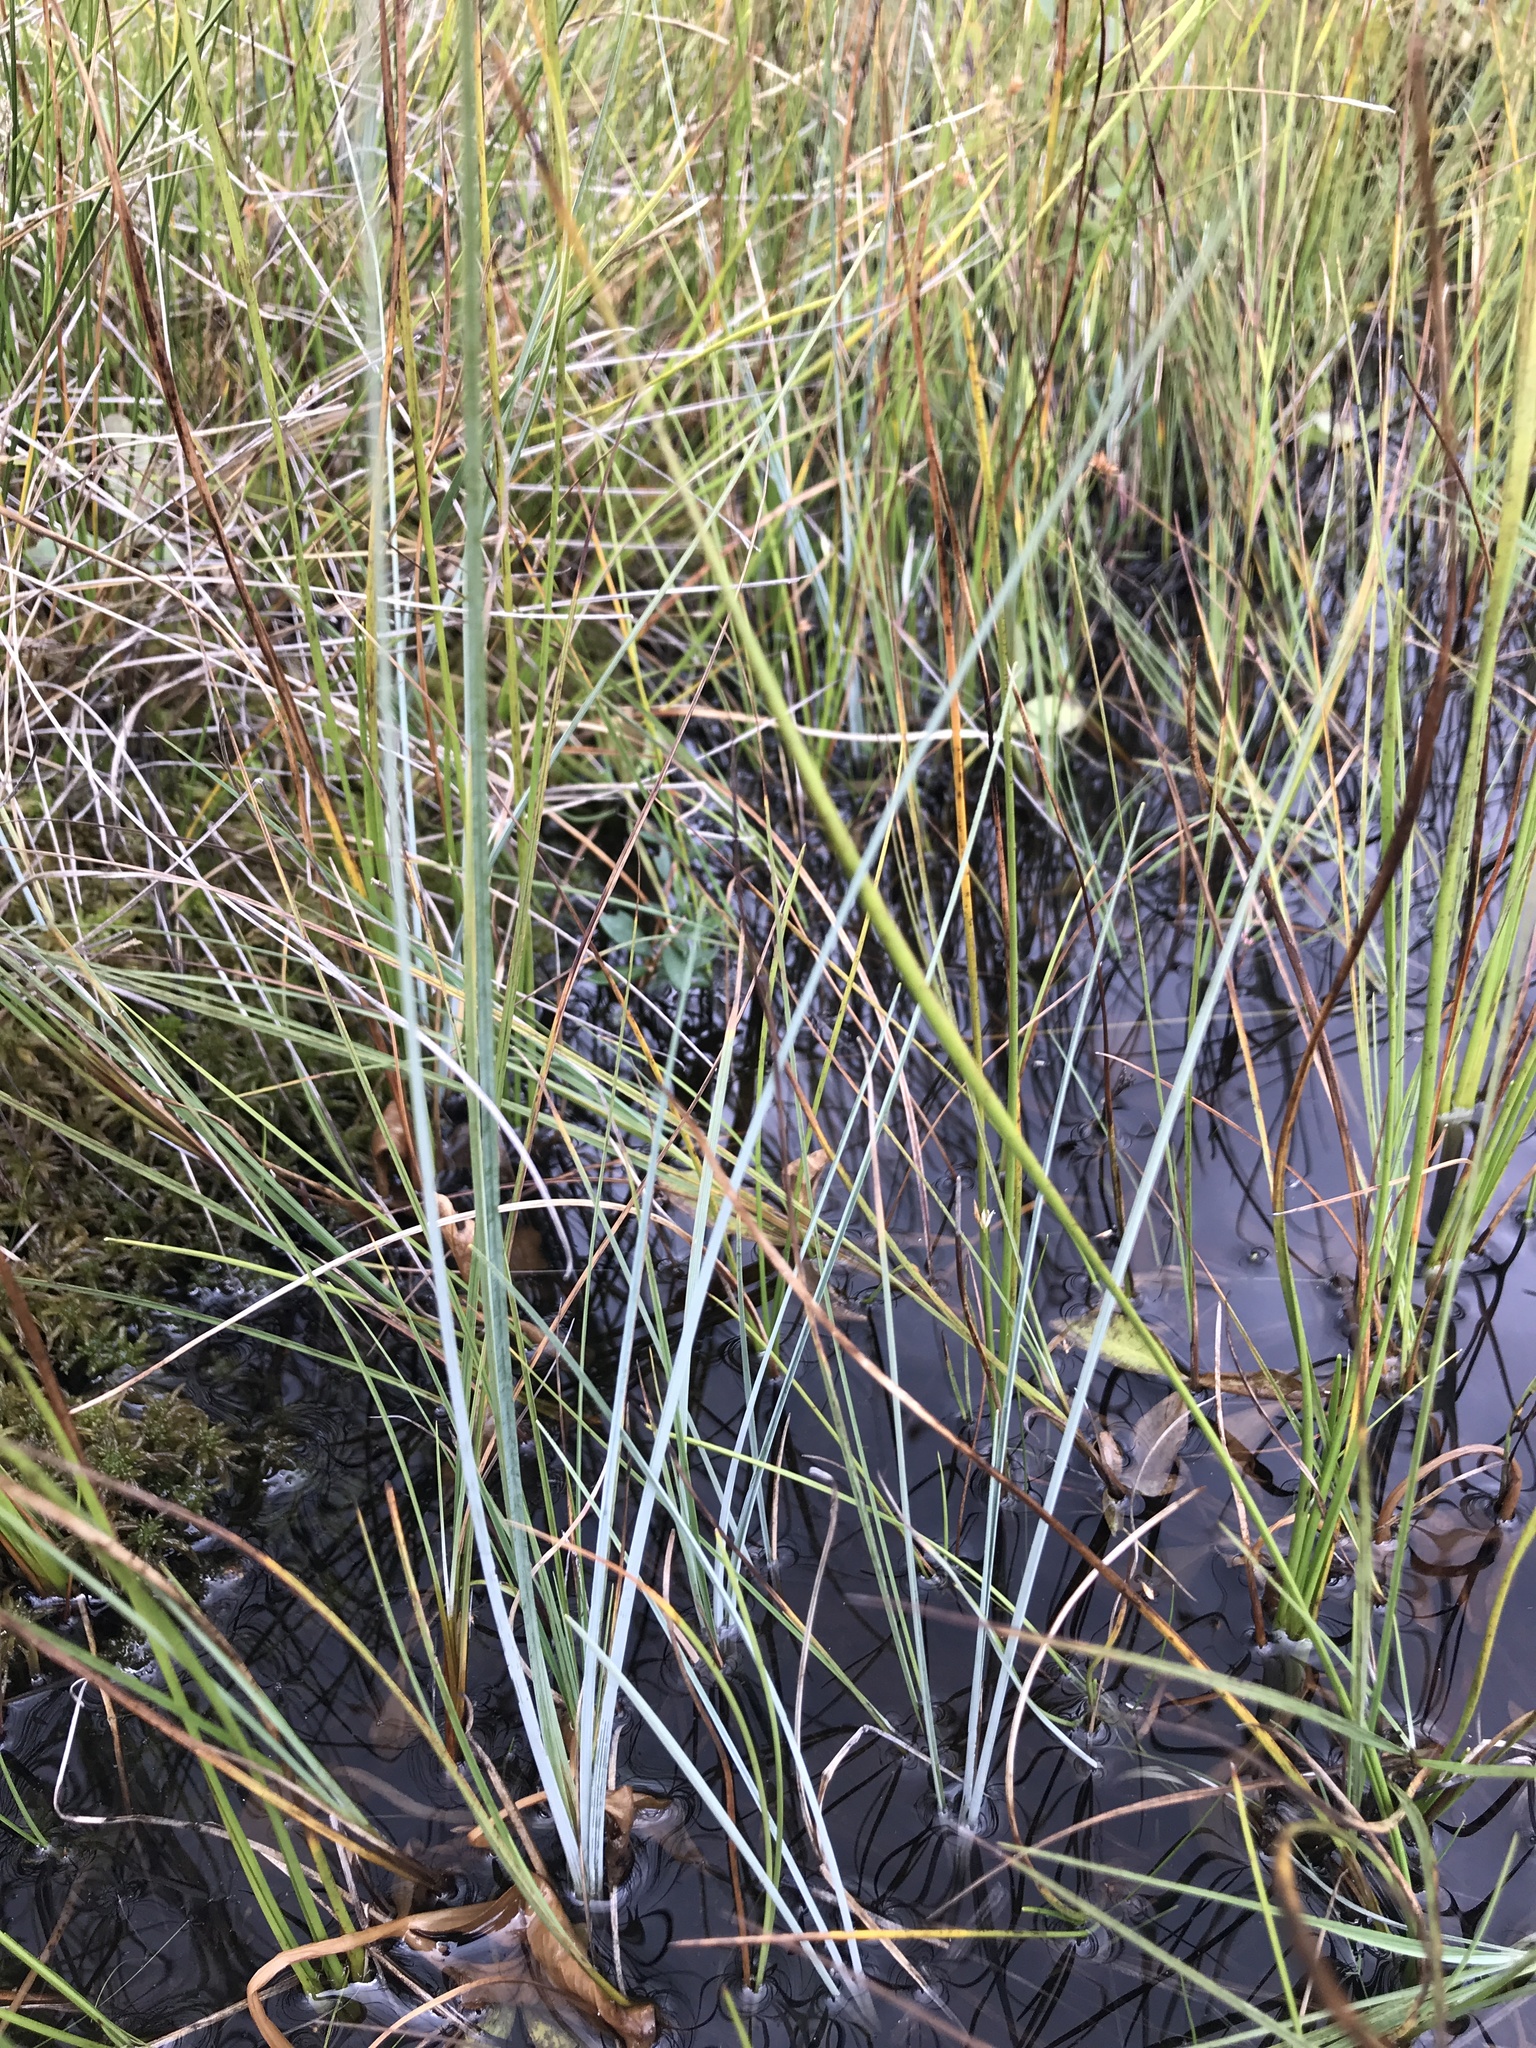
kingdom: Plantae
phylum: Tracheophyta
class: Liliopsida
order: Poales
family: Cyperaceae
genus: Carex
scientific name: Carex livida
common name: Livid sedge
